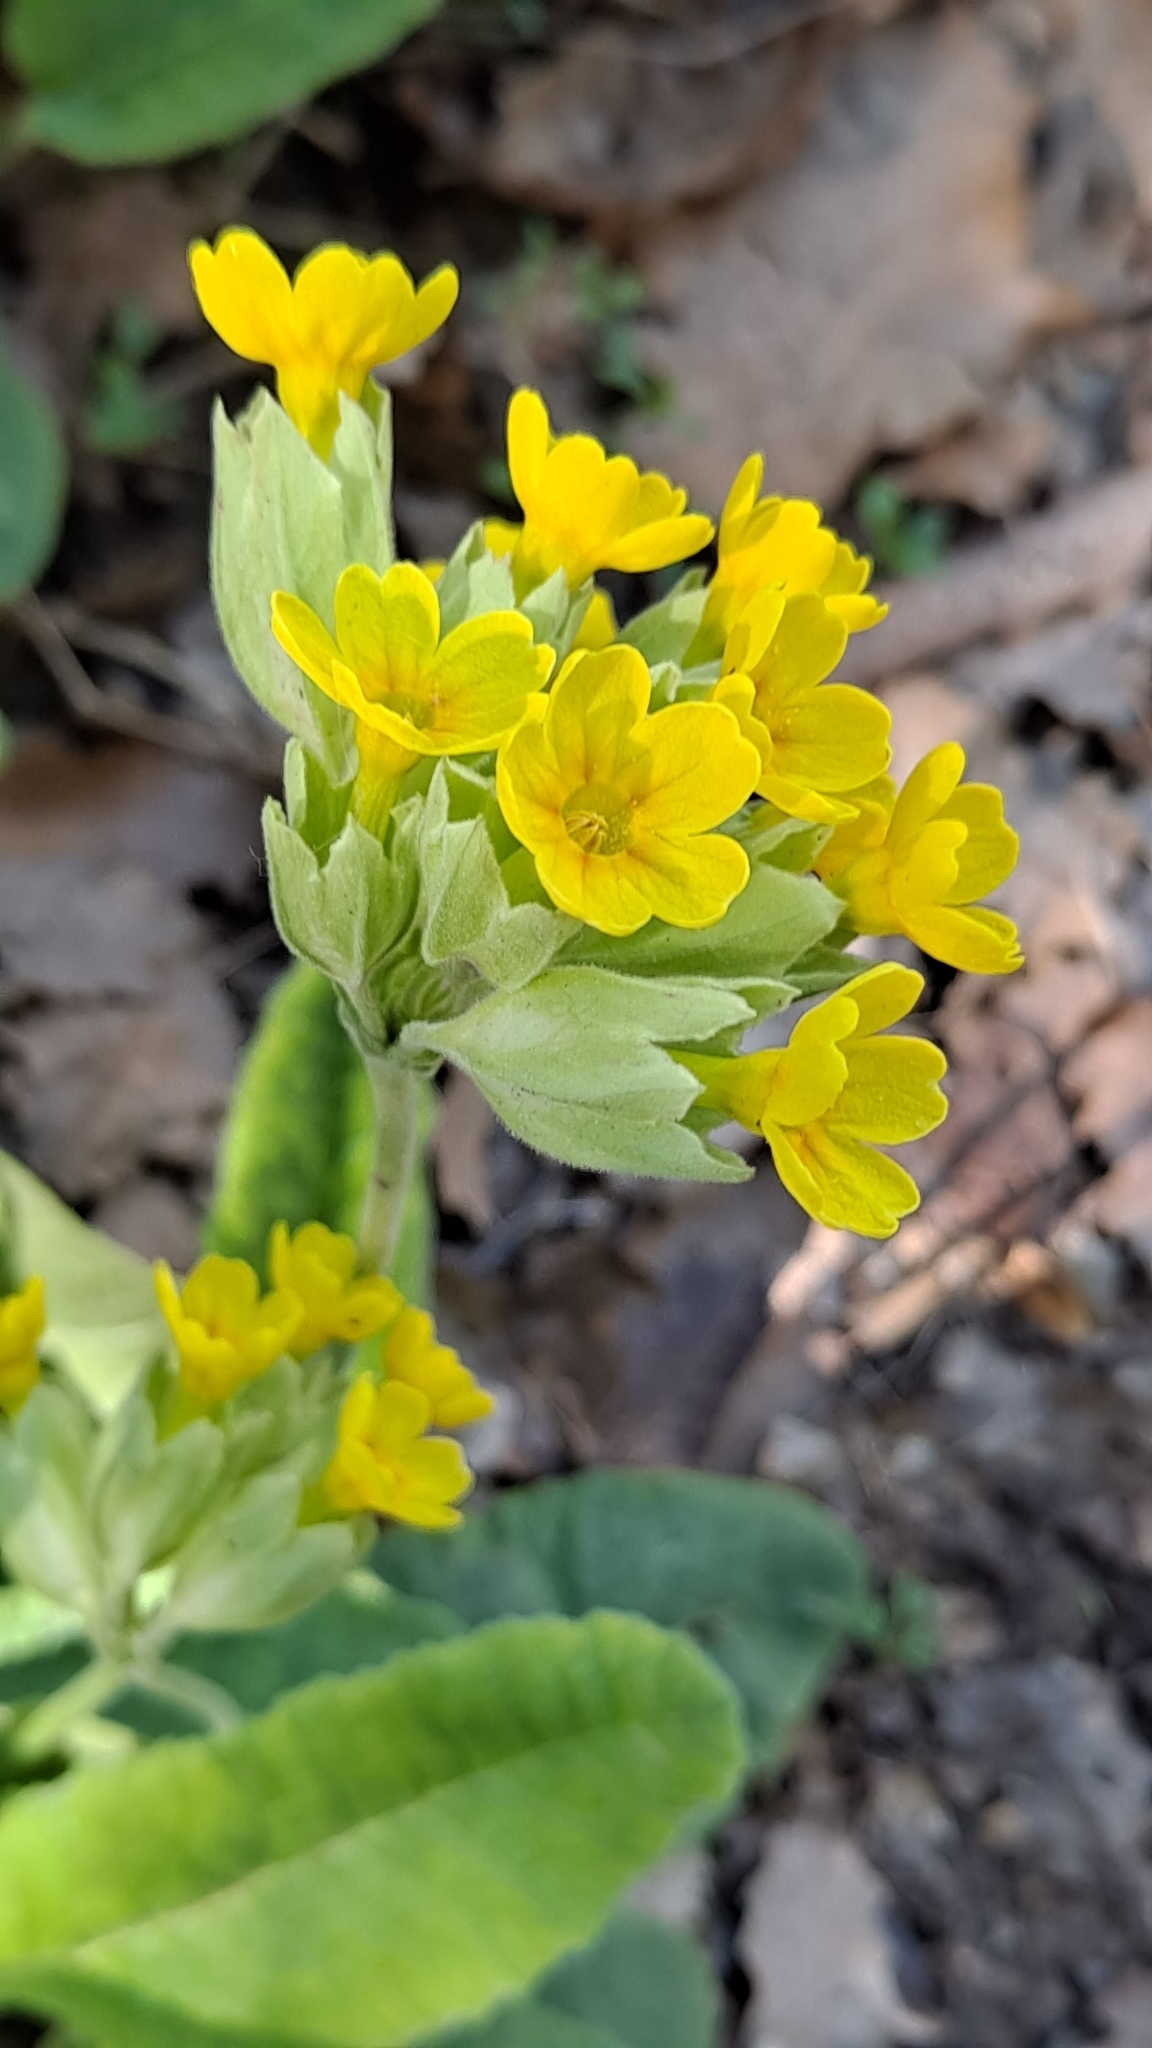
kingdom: Plantae
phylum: Tracheophyta
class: Magnoliopsida
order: Ericales
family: Primulaceae
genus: Primula
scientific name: Primula veris
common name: Cowslip
